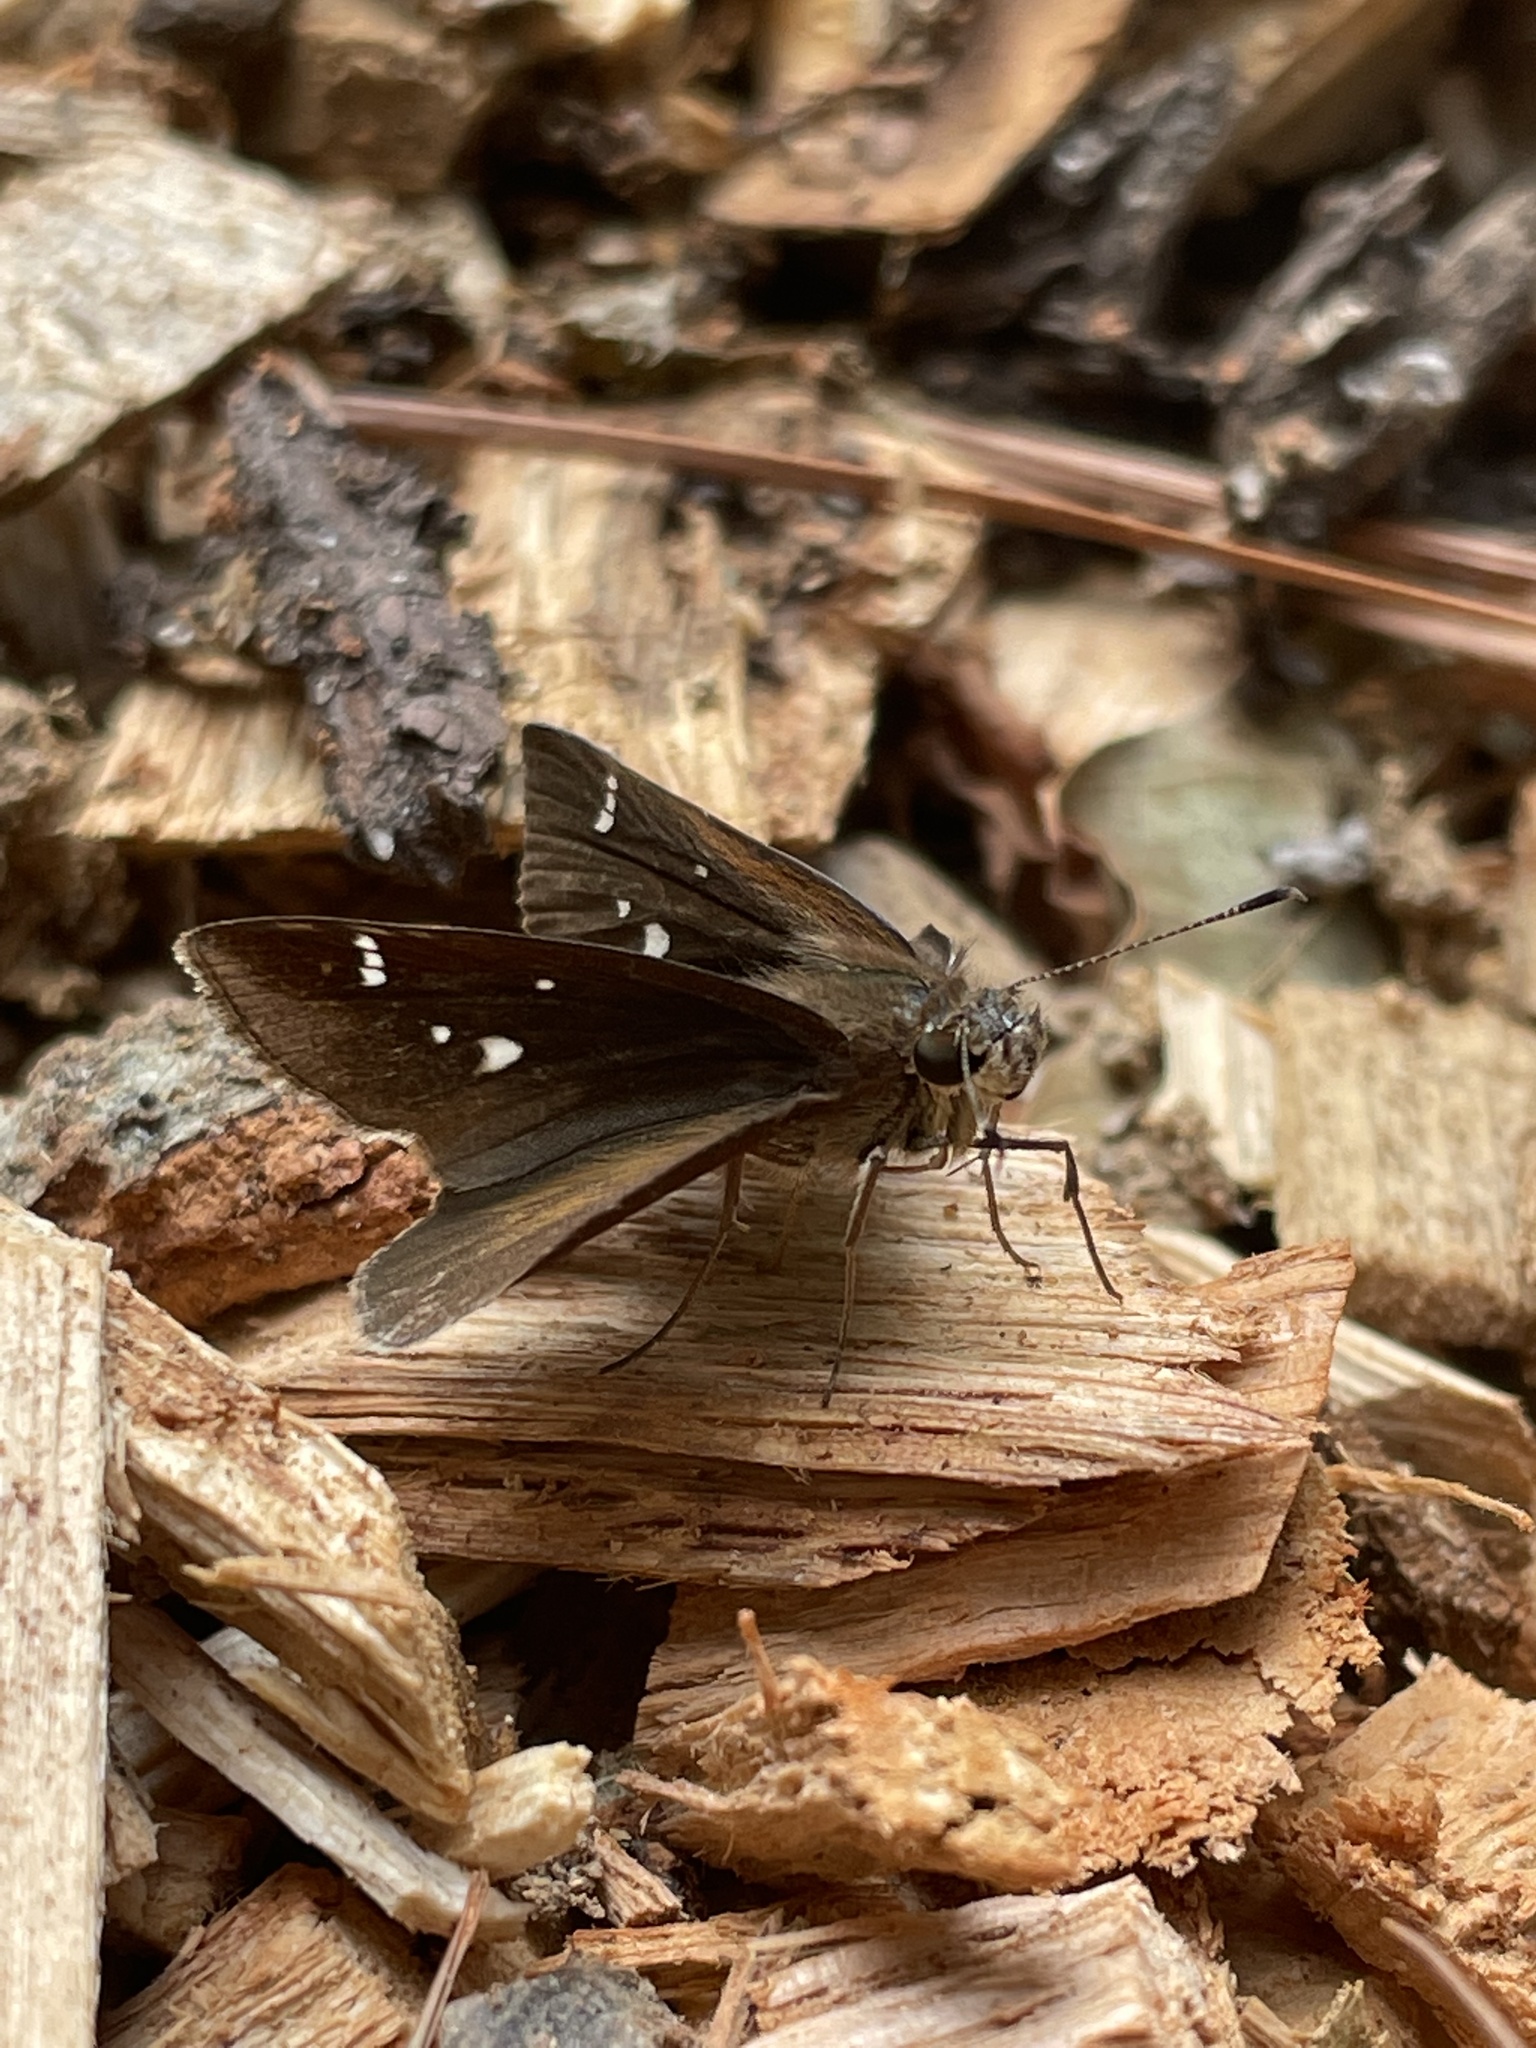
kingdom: Animalia
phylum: Arthropoda
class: Insecta
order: Lepidoptera
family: Hesperiidae
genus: Lerema
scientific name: Lerema accius
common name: Clouded skipper
